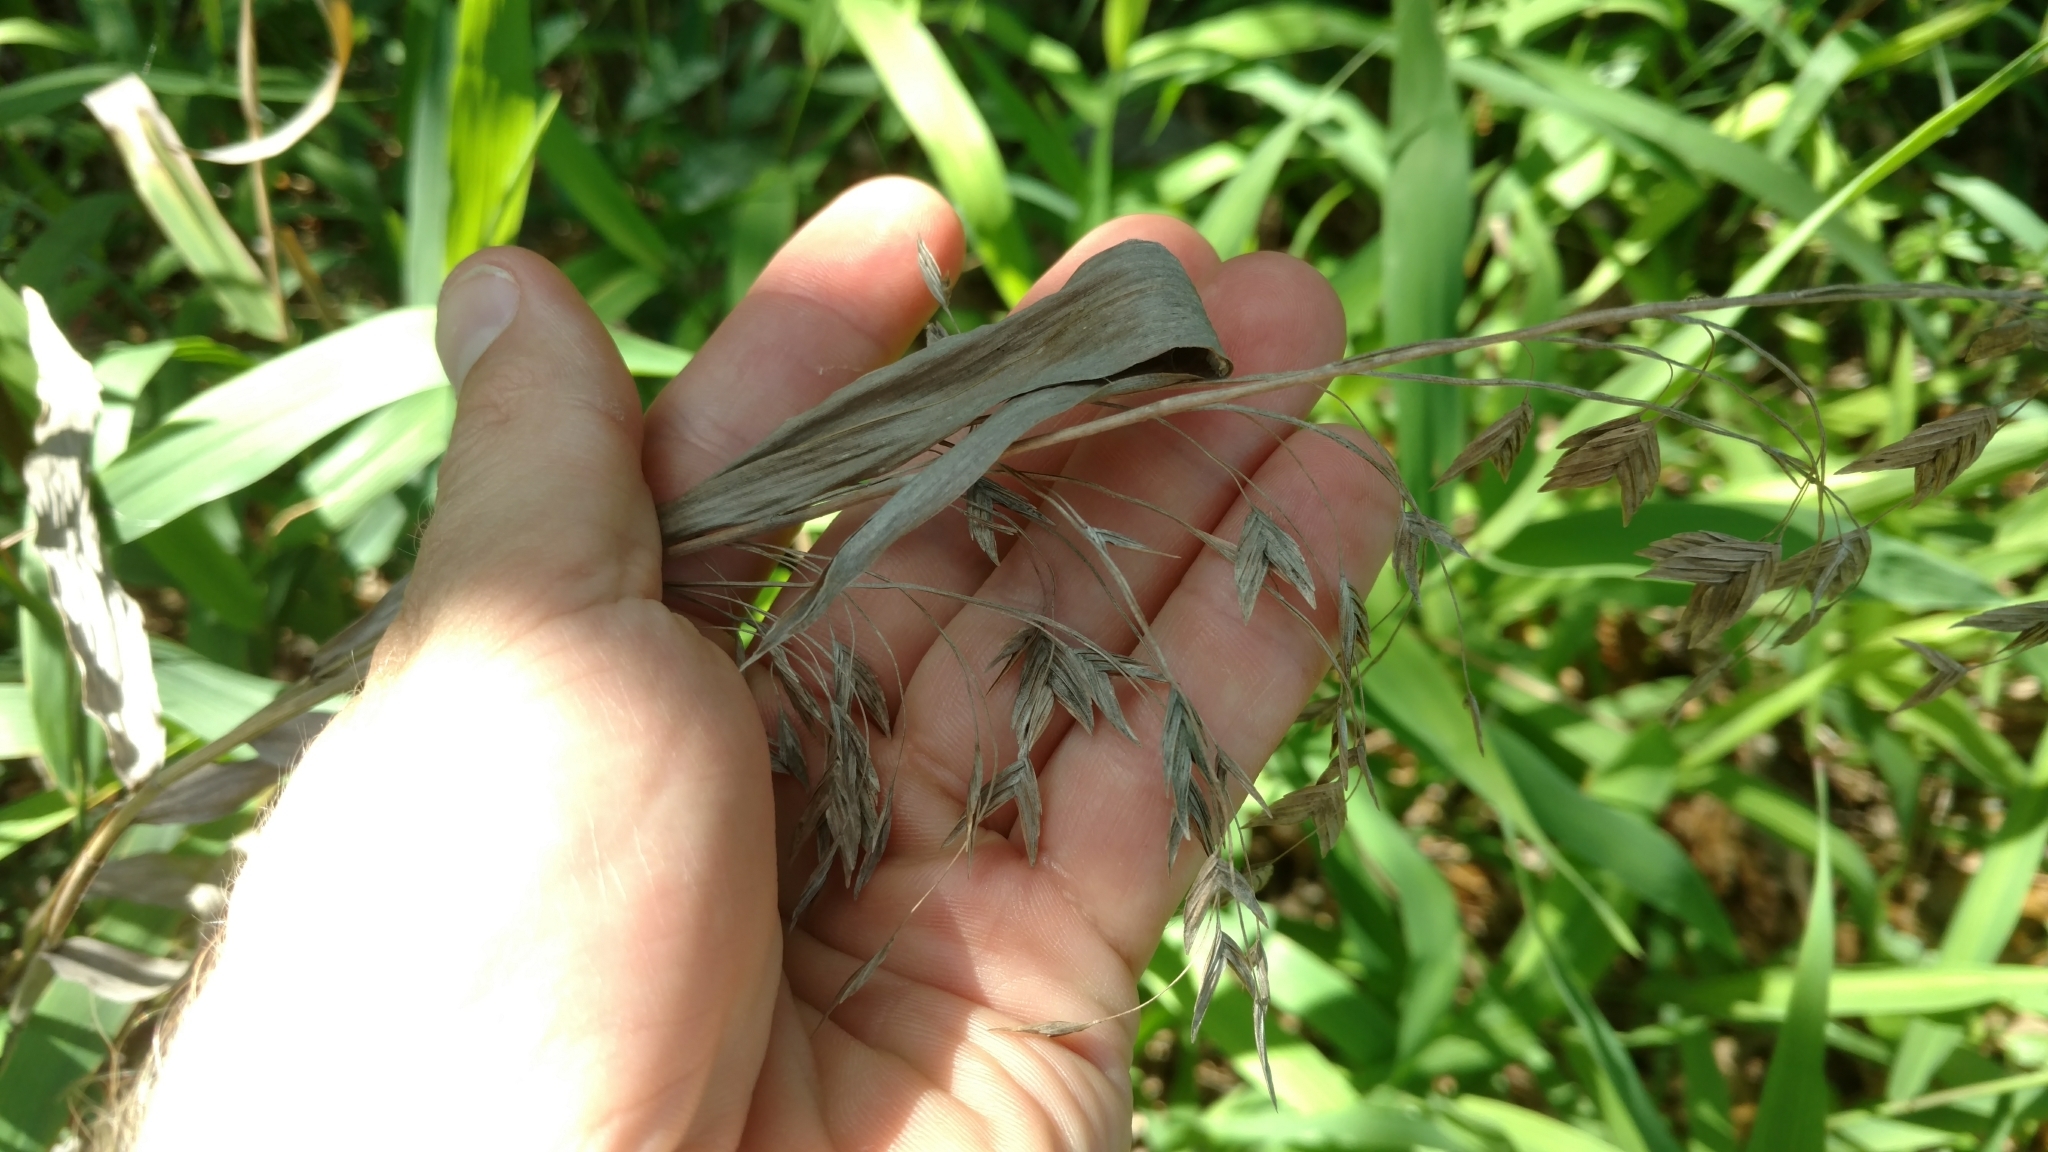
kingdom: Plantae
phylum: Tracheophyta
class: Liliopsida
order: Poales
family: Poaceae
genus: Chasmanthium
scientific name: Chasmanthium latifolium
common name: Broad-leaved chasmanthium
